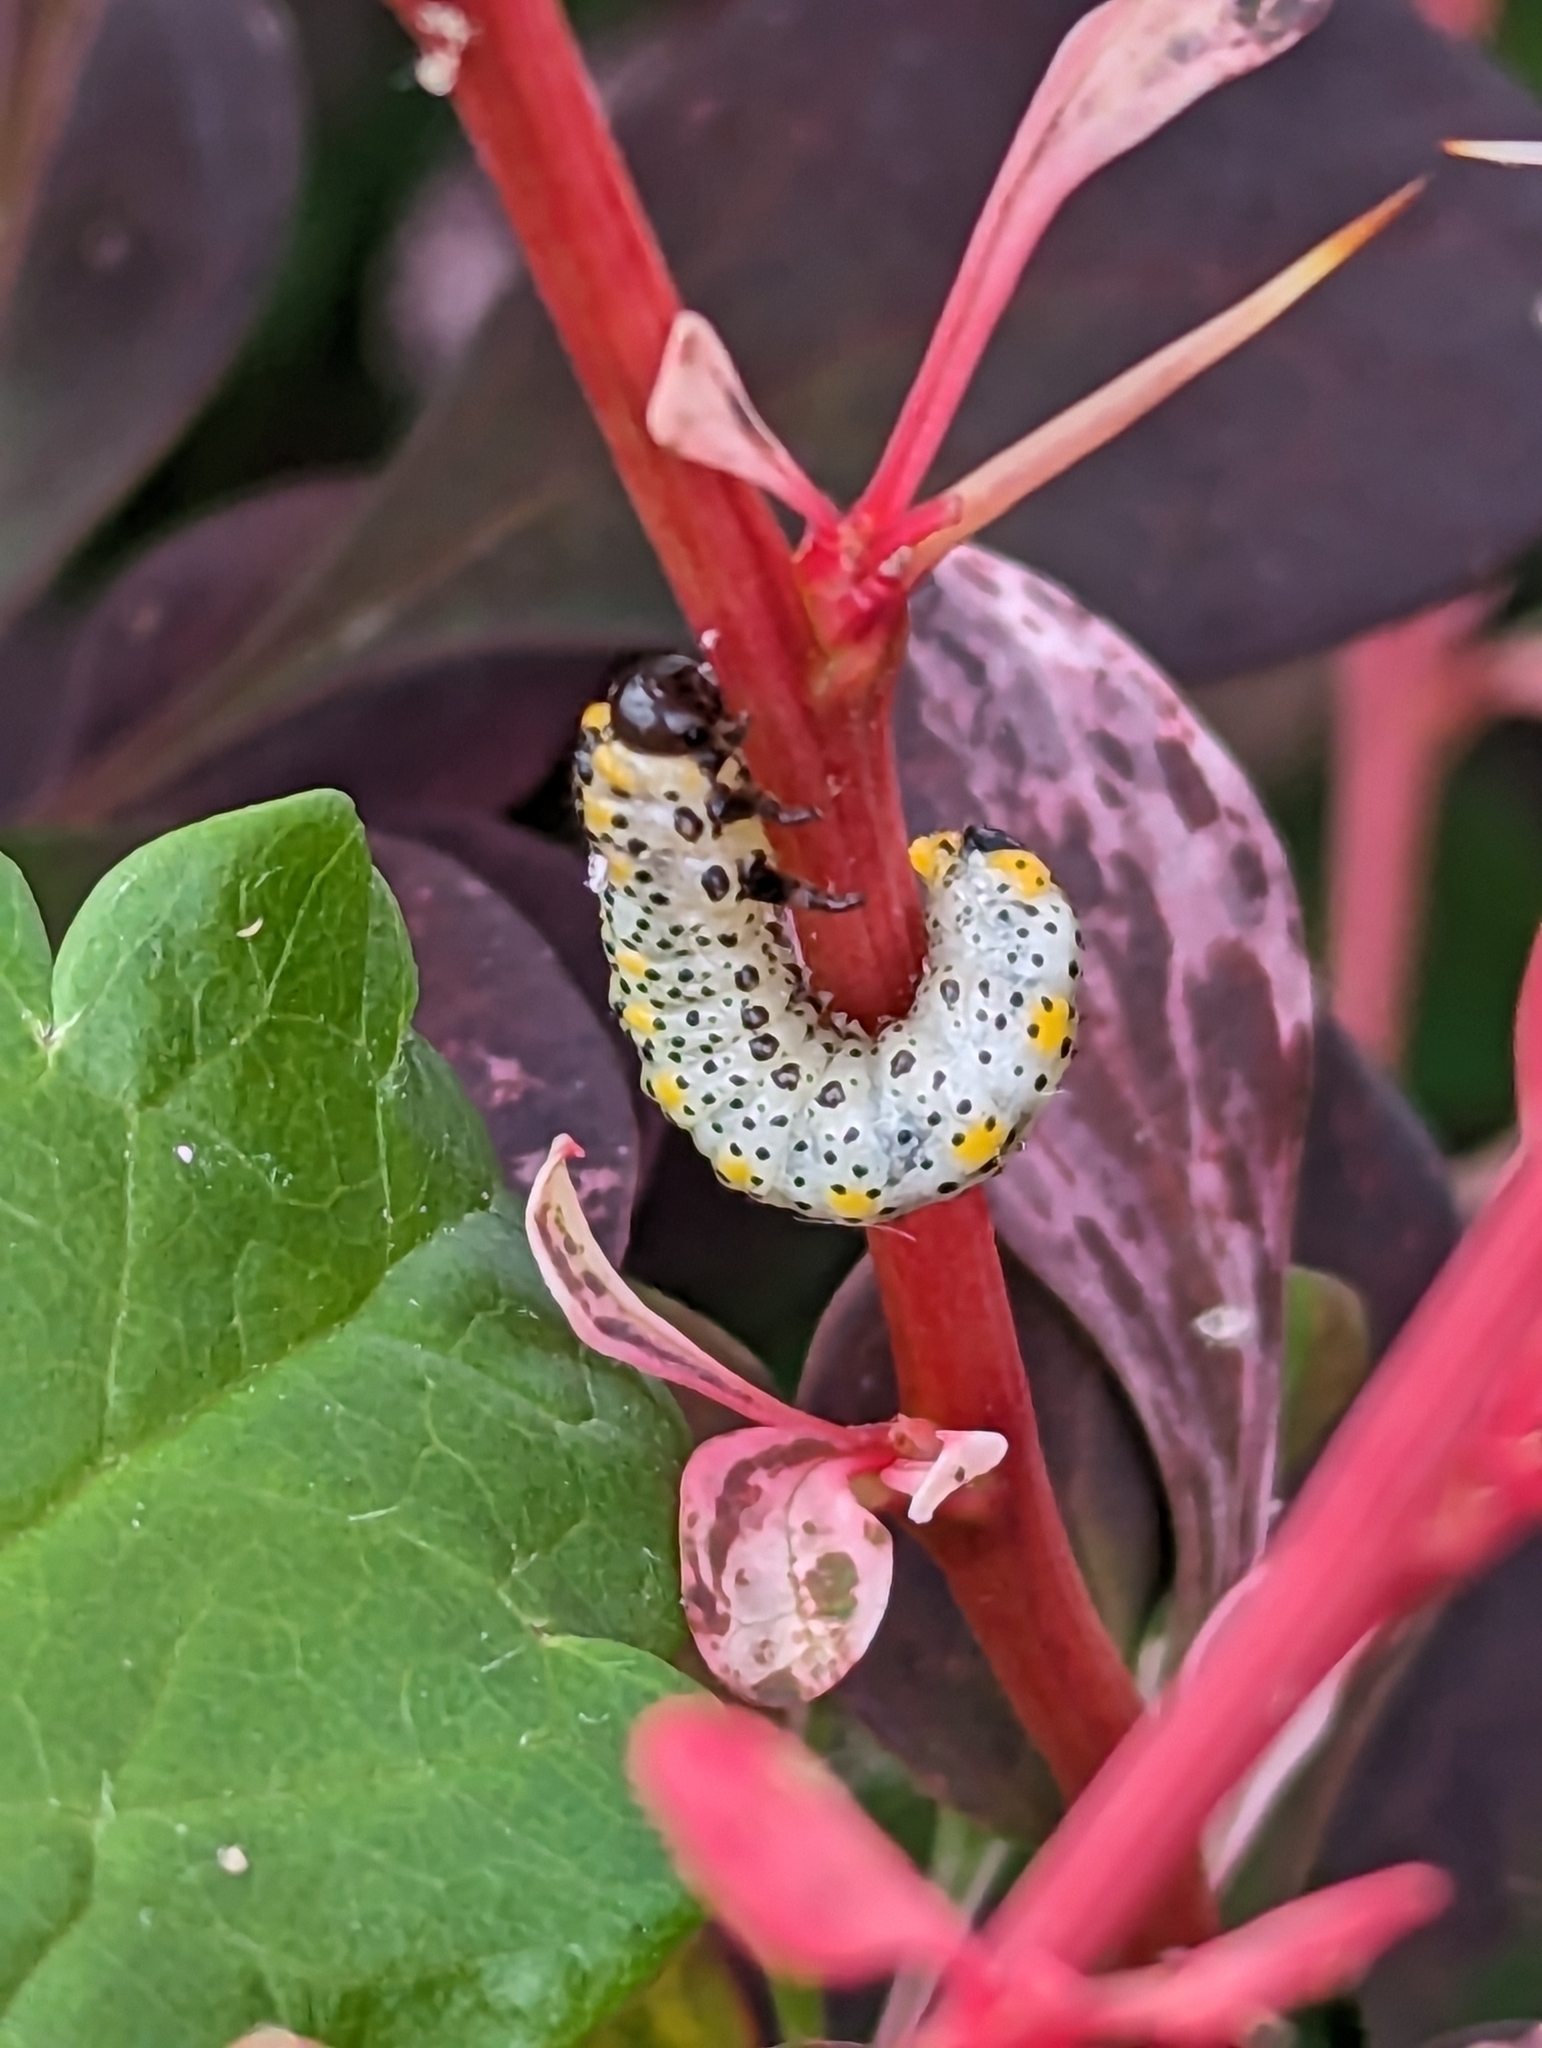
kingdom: Animalia
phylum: Arthropoda
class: Insecta
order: Hymenoptera
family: Argidae
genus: Arge
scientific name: Arge berberidis
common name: Berberis sawfly
